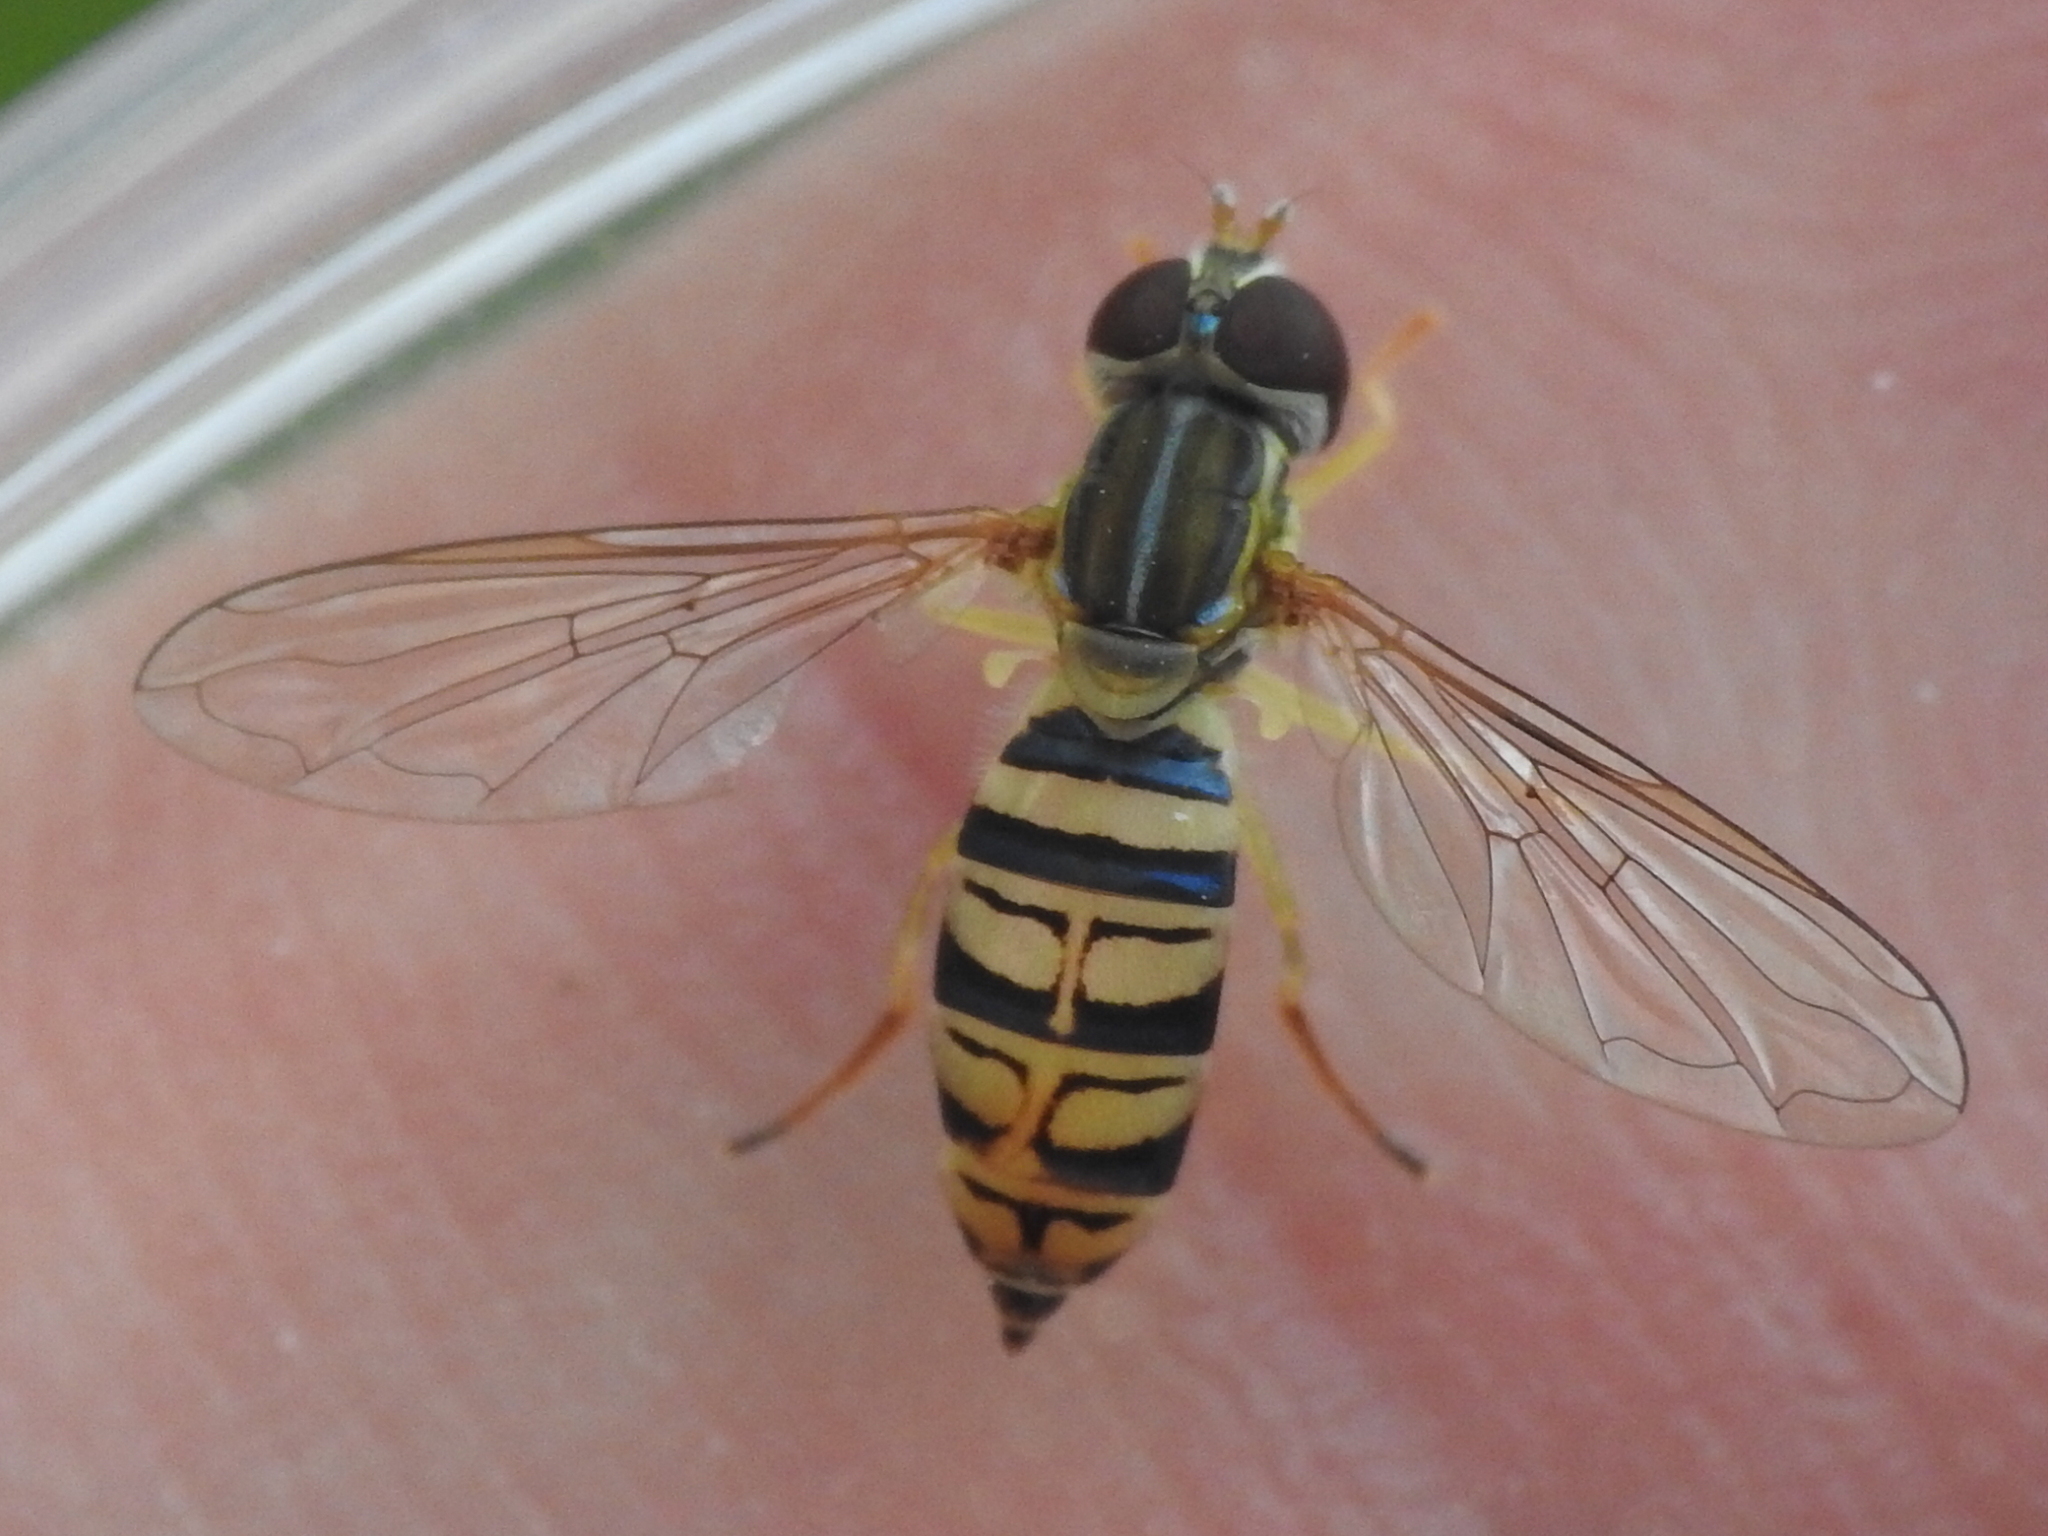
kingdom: Animalia
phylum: Arthropoda
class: Insecta
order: Diptera
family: Syrphidae
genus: Toxomerus
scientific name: Toxomerus politus
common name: Maize calligrapher
